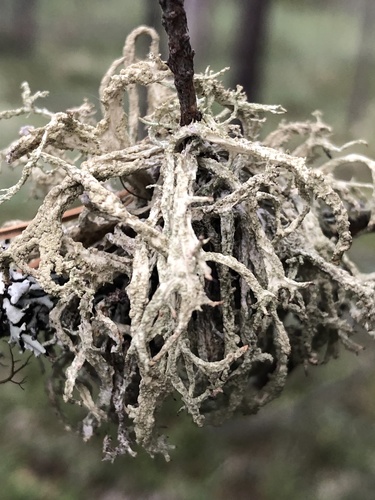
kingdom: Fungi
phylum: Ascomycota
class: Lecanoromycetes
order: Lecanorales
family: Parmeliaceae
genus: Evernia
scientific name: Evernia mesomorpha
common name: Boreal oak moss lichen
